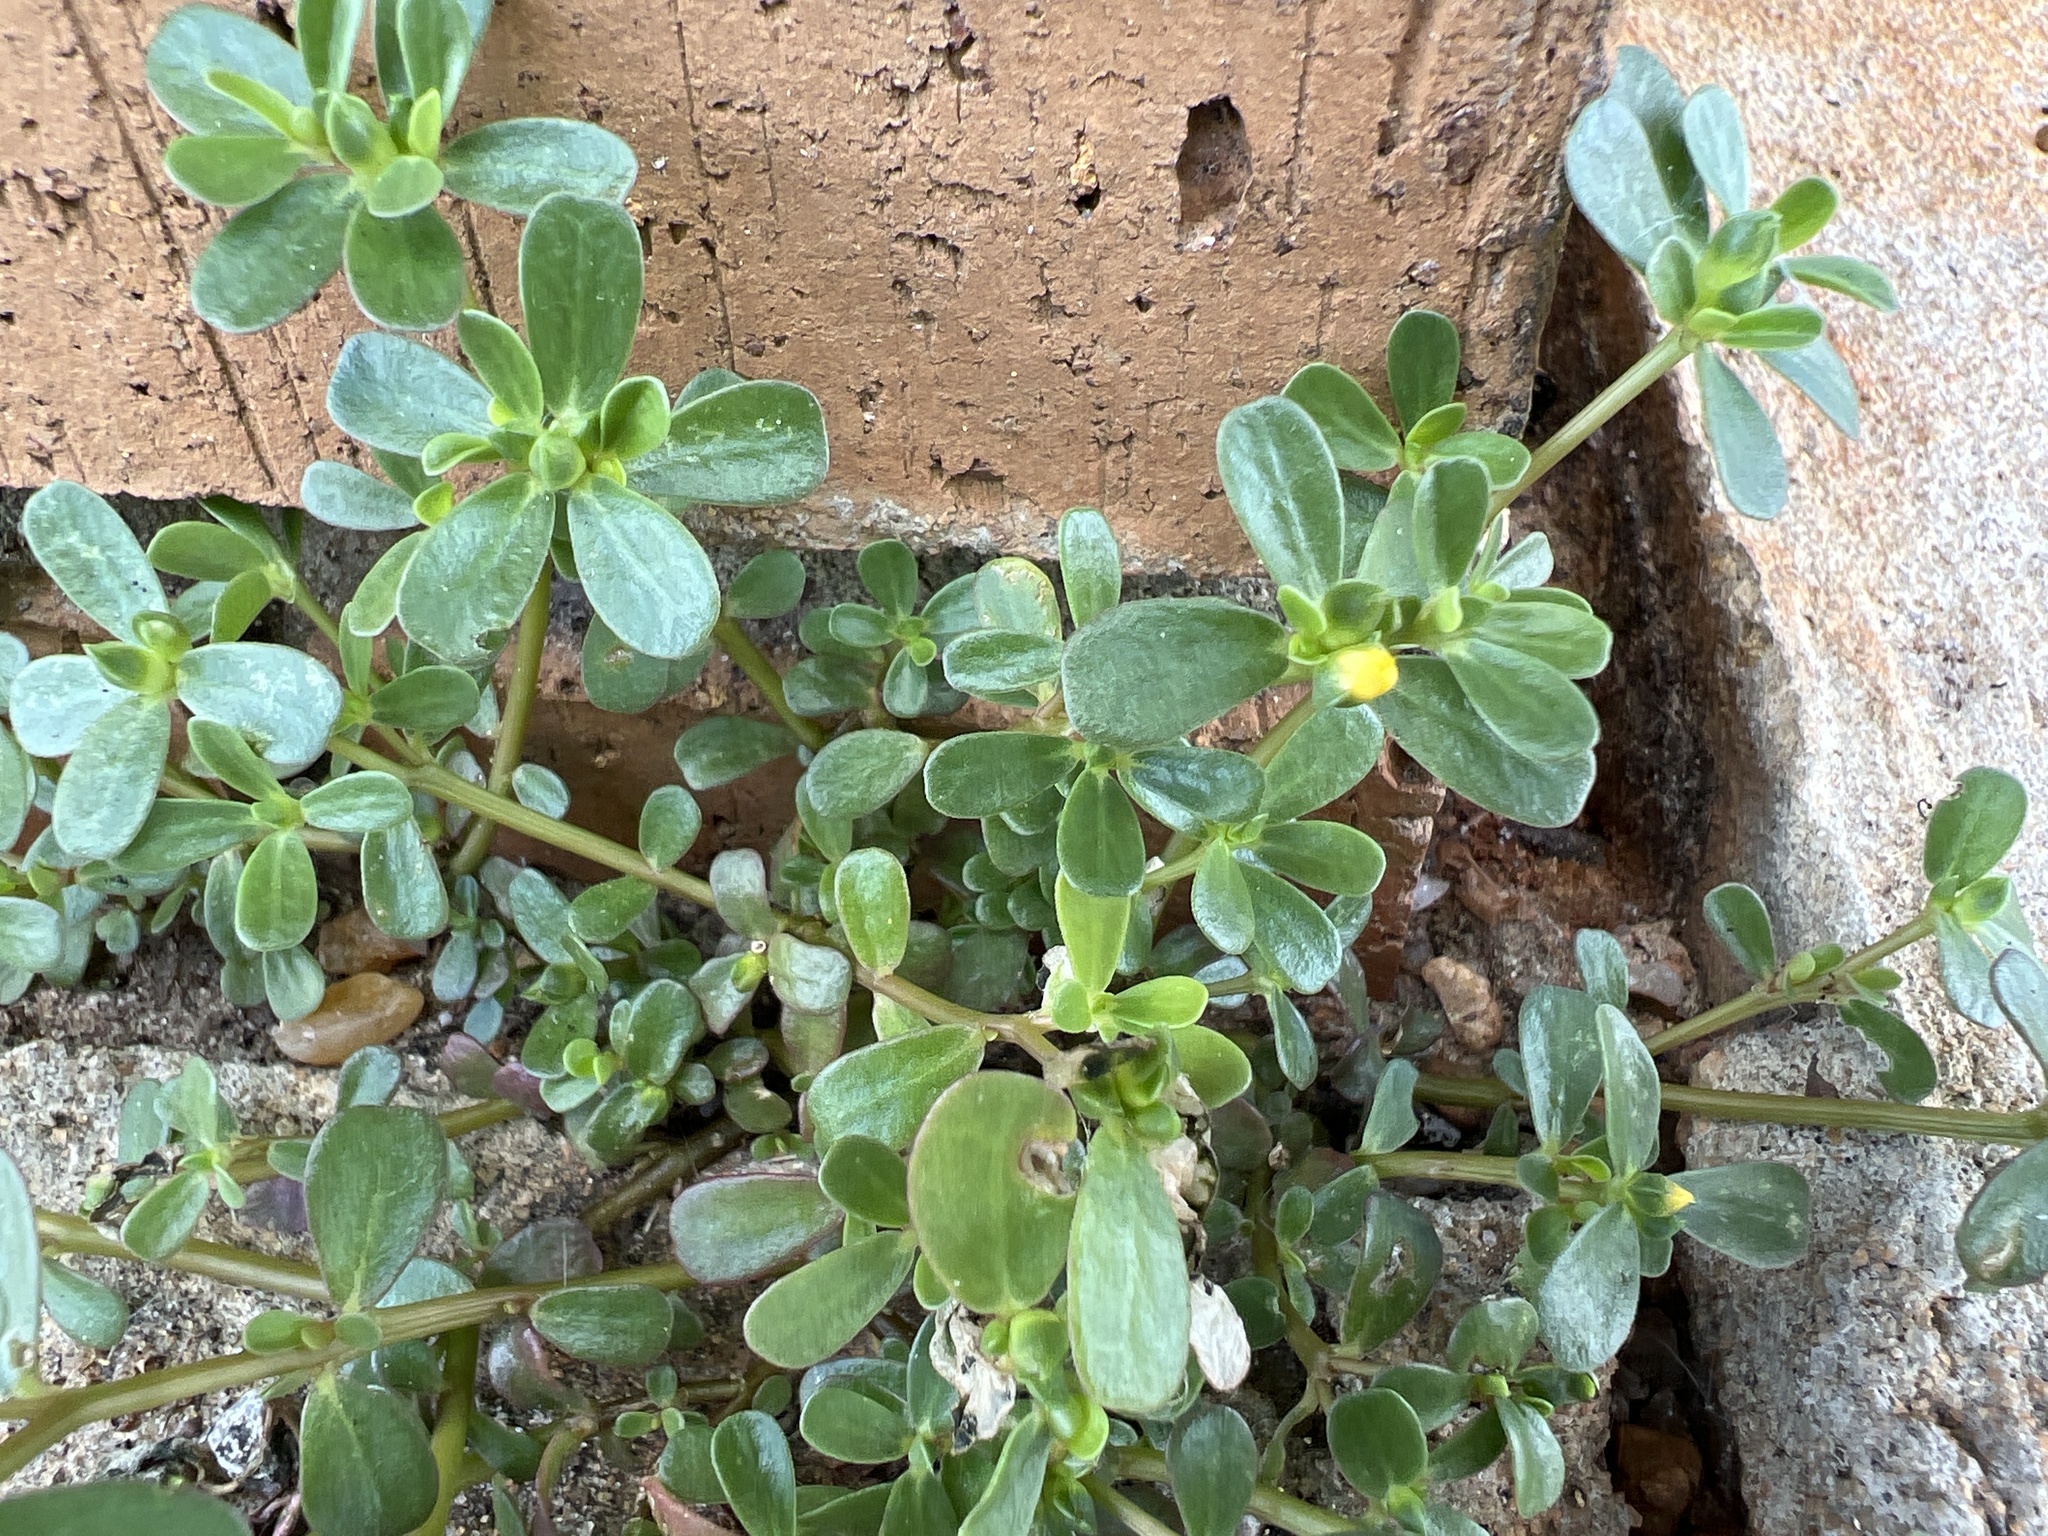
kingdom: Plantae
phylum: Tracheophyta
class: Magnoliopsida
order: Caryophyllales
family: Portulacaceae
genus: Portulaca
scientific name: Portulaca oleracea
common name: Common purslane
